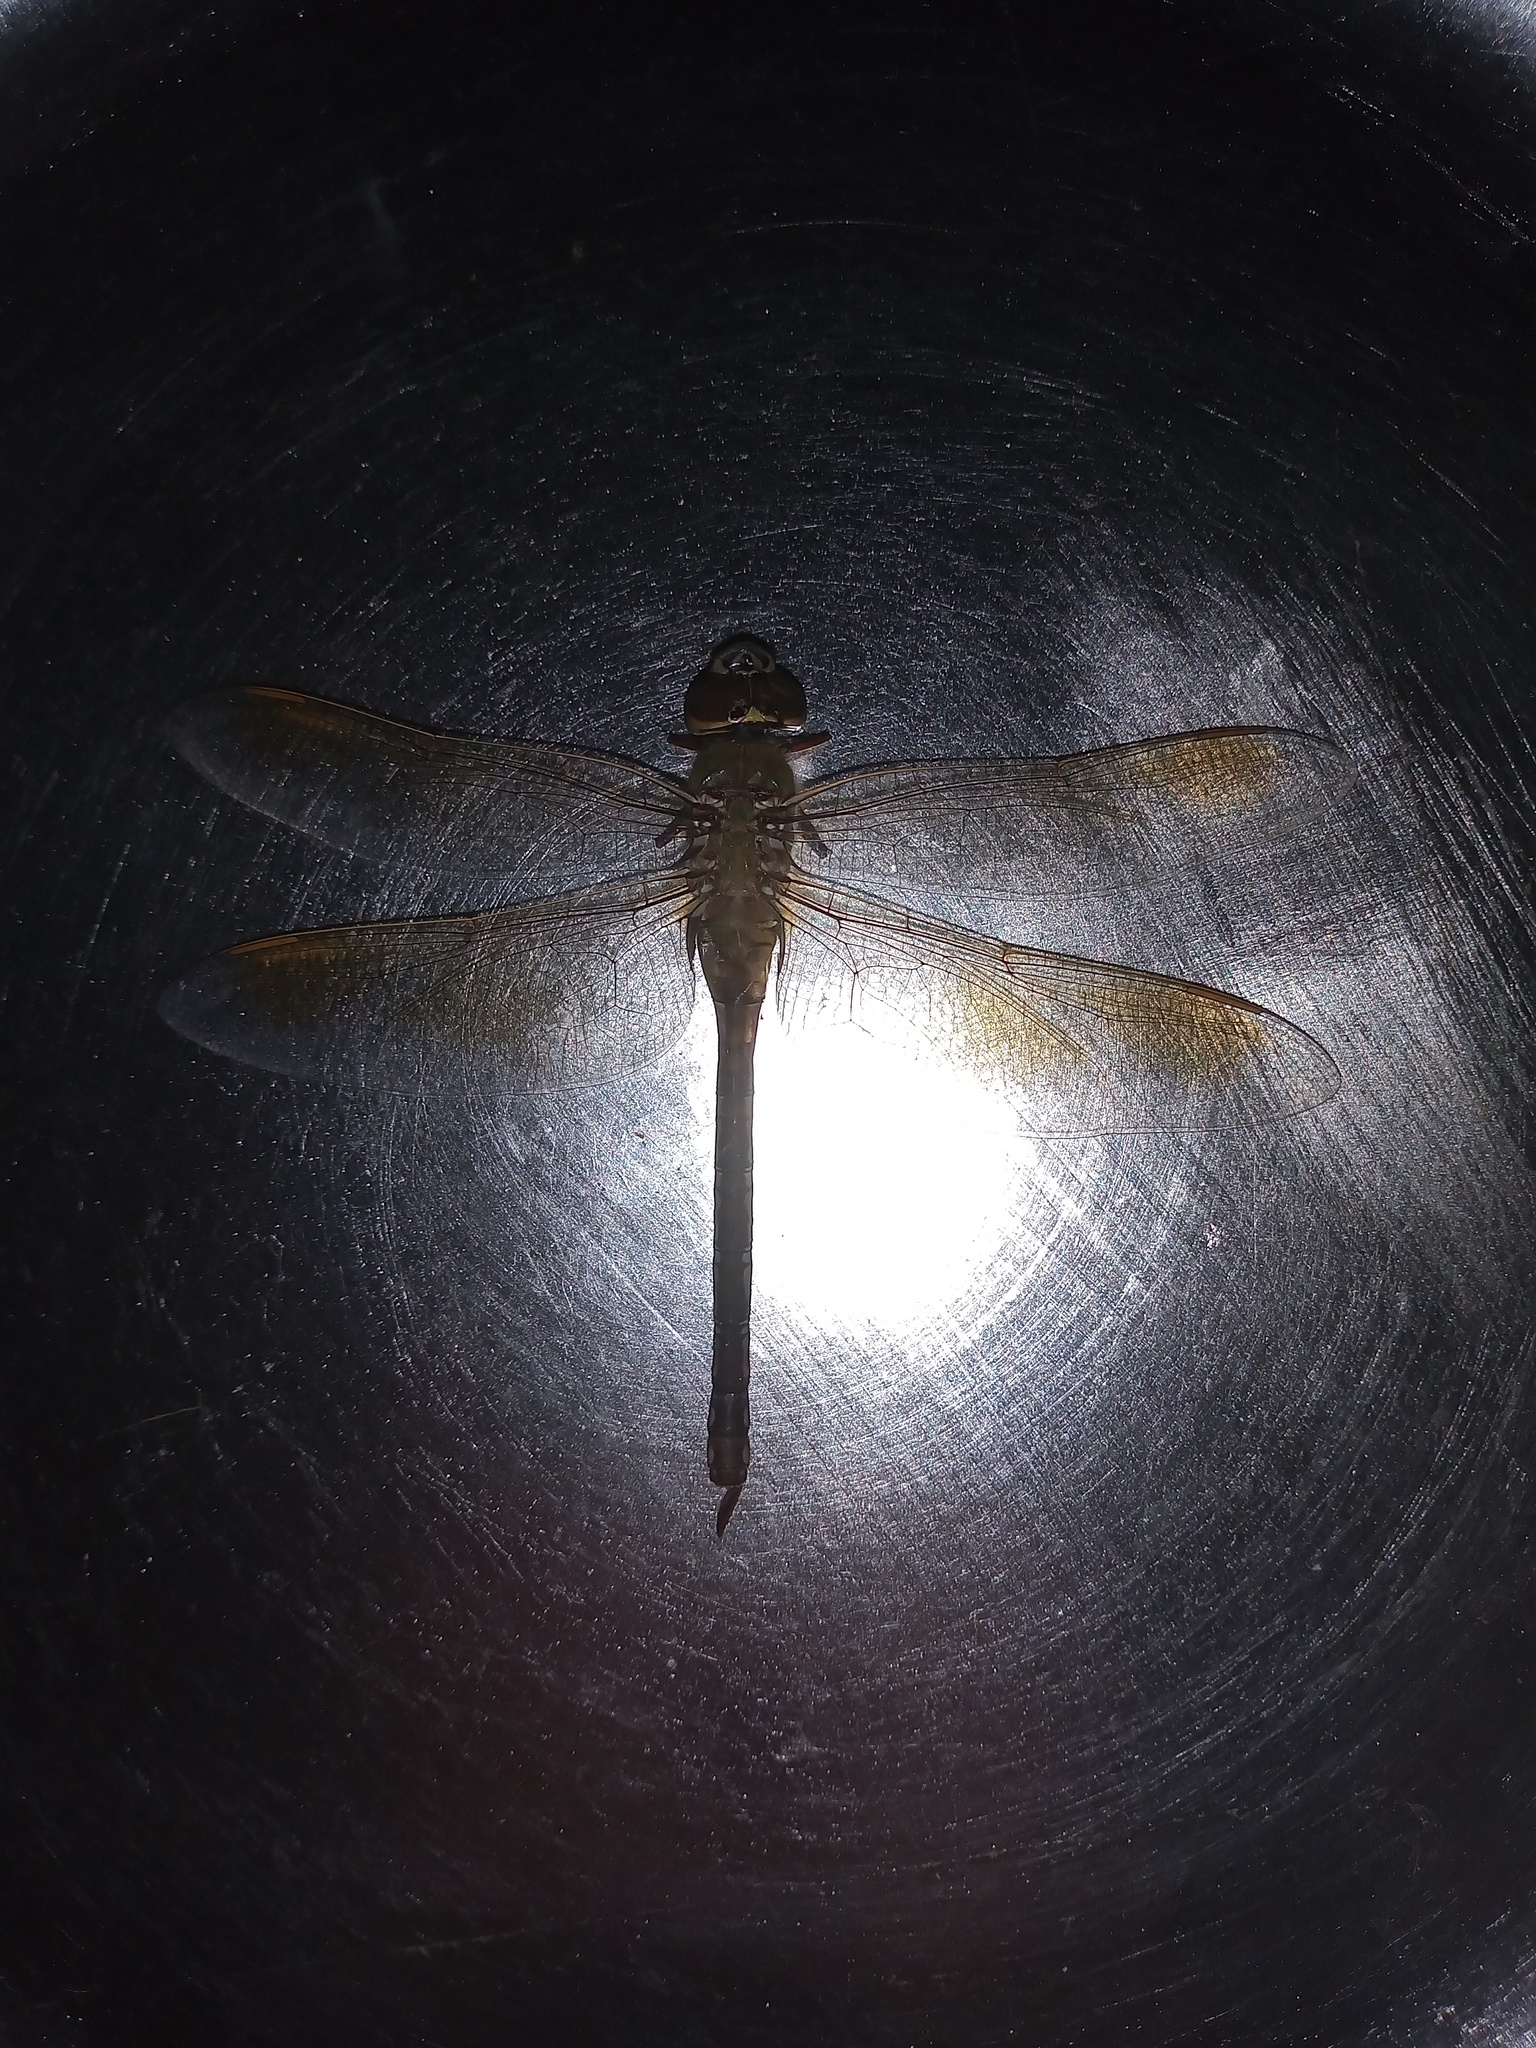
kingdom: Animalia
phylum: Arthropoda
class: Insecta
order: Odonata
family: Aeshnidae
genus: Anax
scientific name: Anax junius
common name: Common green darner
